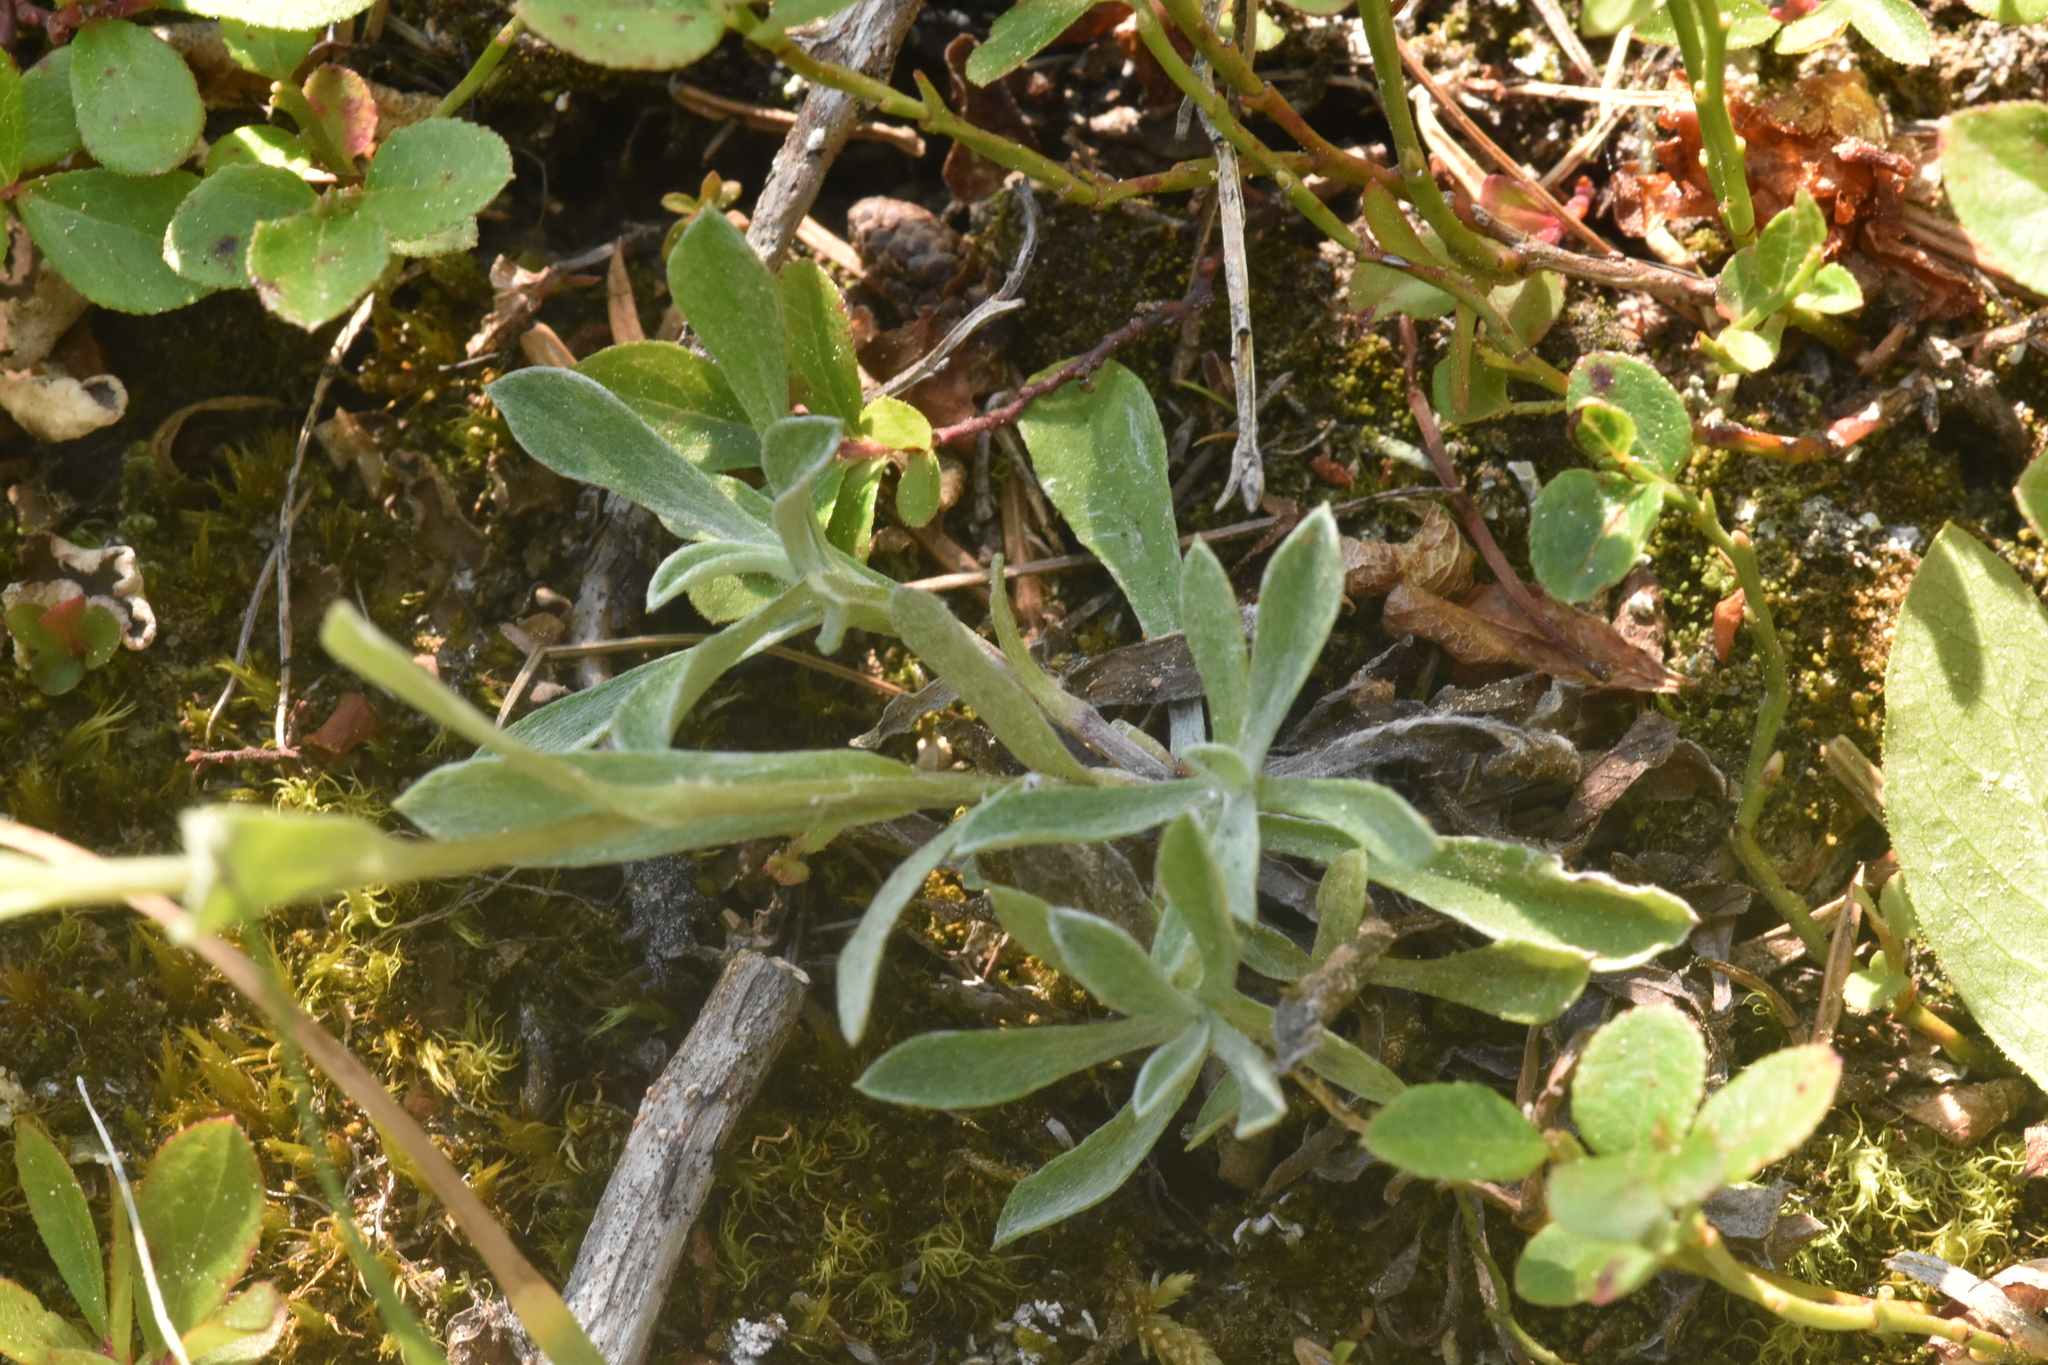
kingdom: Plantae
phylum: Tracheophyta
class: Magnoliopsida
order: Asterales
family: Asteraceae
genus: Antennaria
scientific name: Antennaria rosea
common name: Rosy pussytoes
